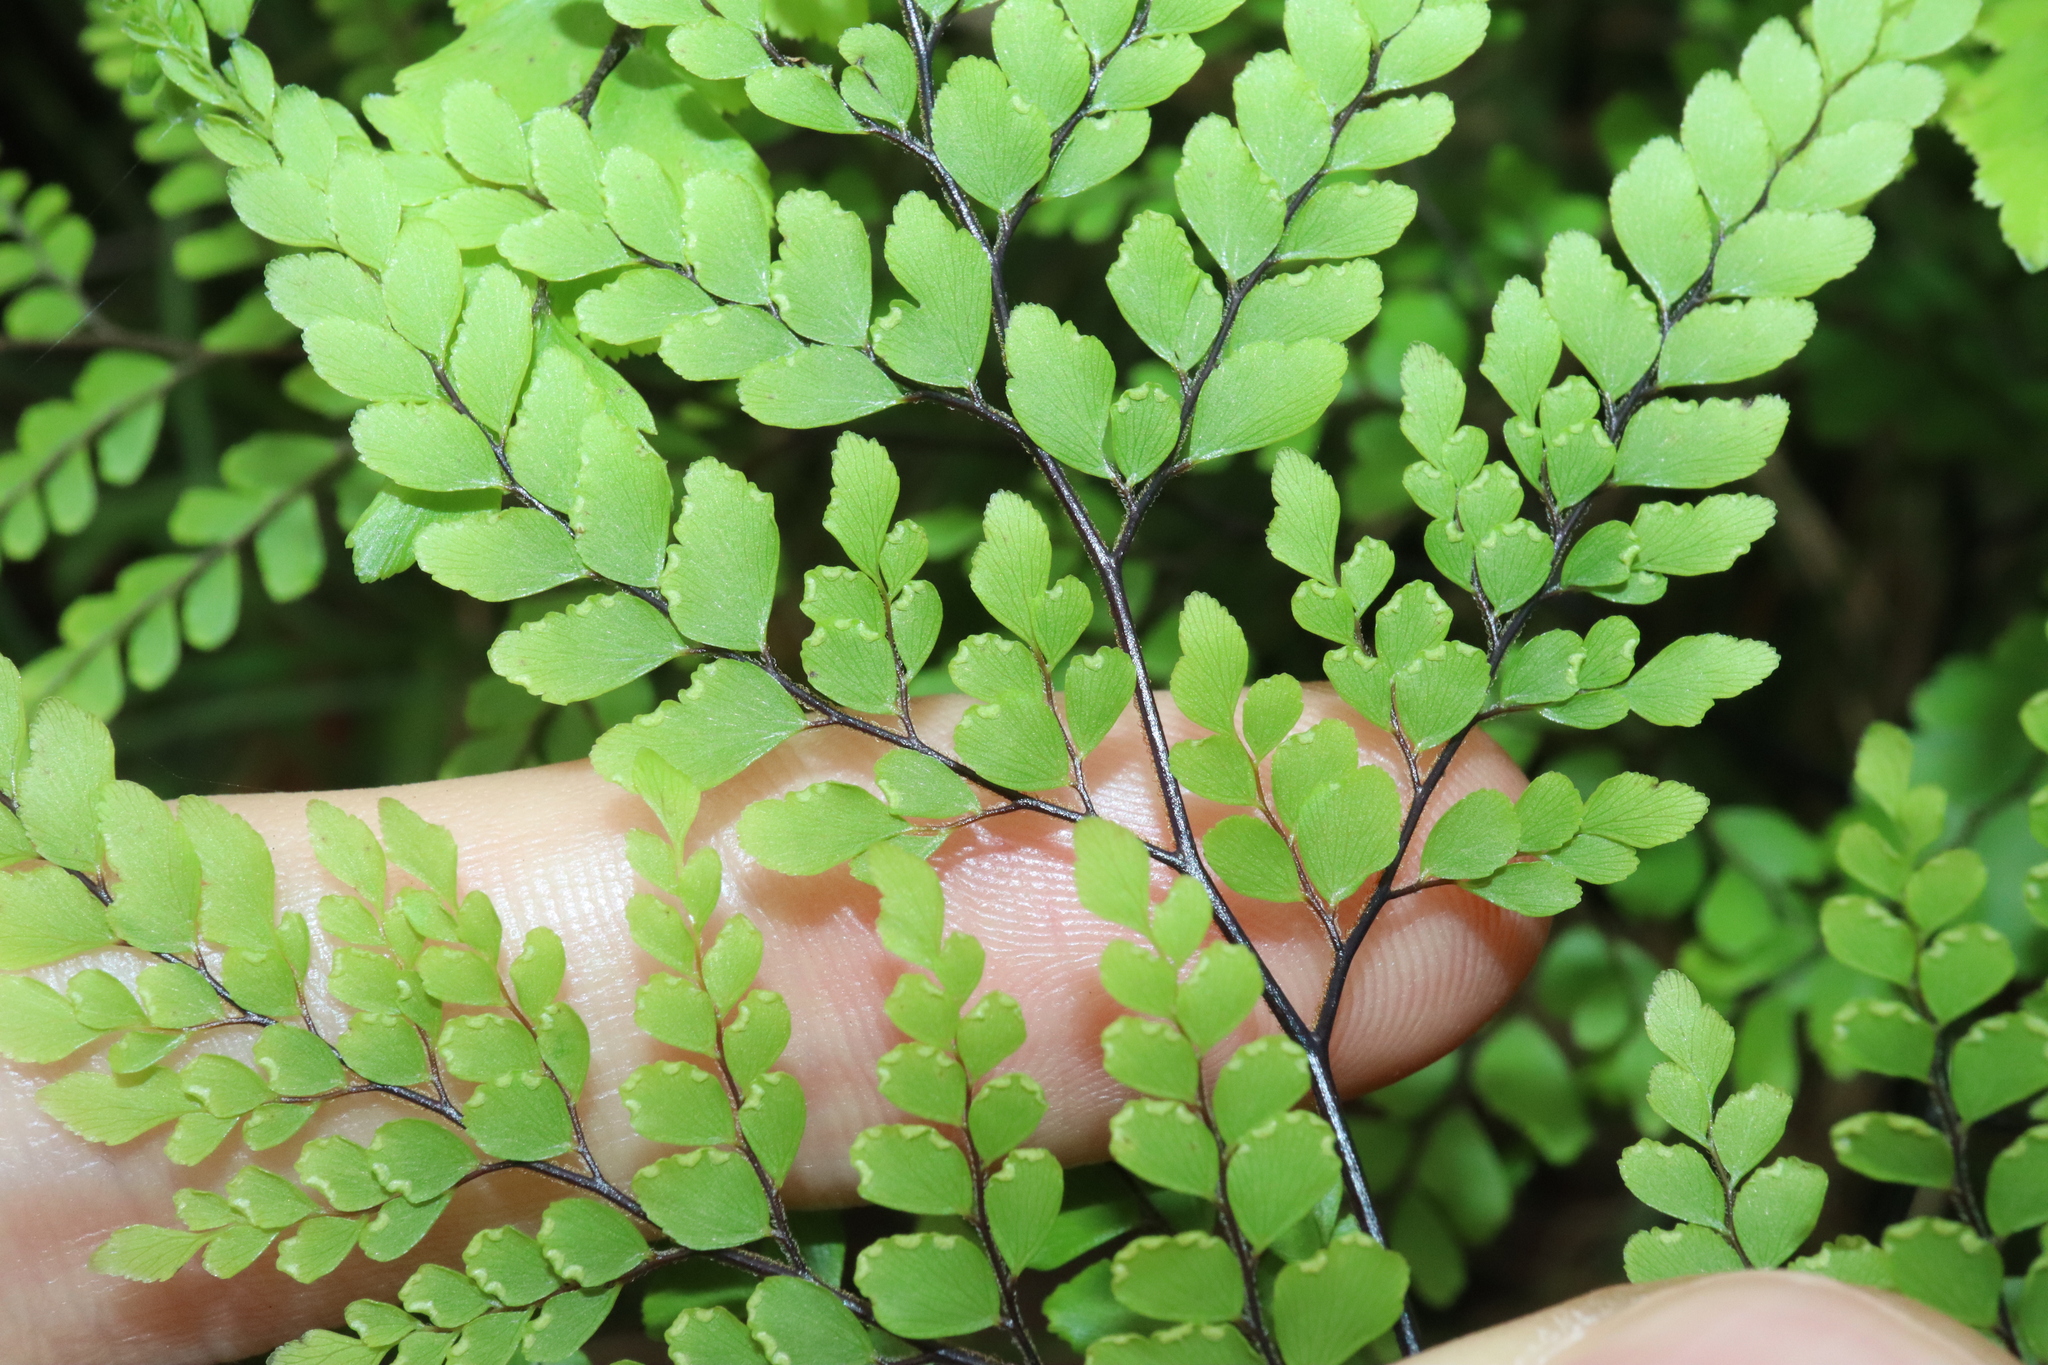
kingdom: Plantae
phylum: Tracheophyta
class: Polypodiopsida
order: Polypodiales
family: Pteridaceae
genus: Adiantum
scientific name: Adiantum formosum
